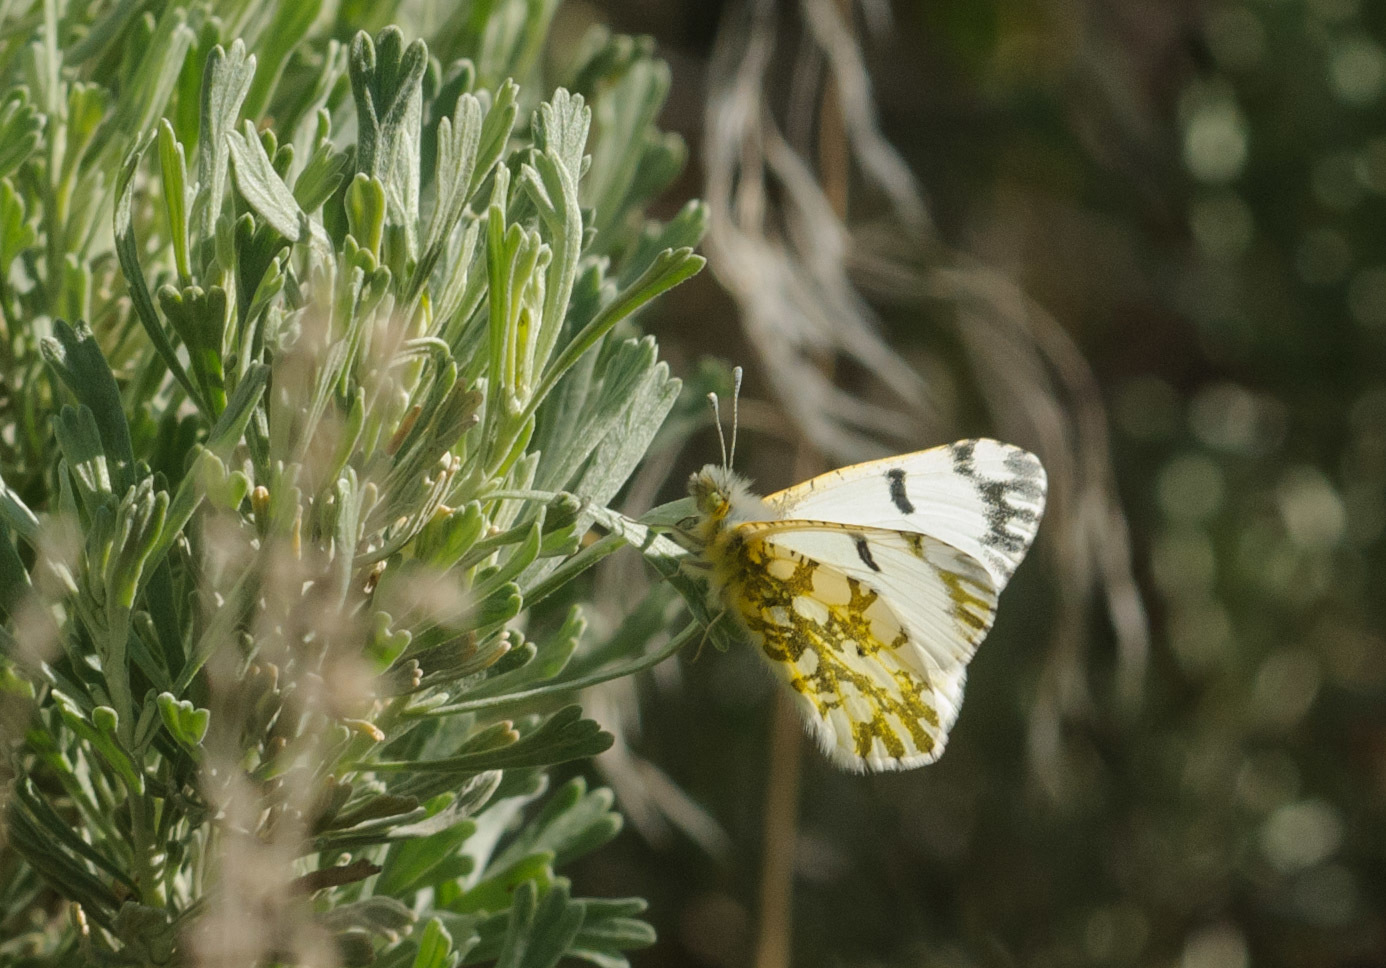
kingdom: Animalia
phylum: Arthropoda
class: Insecta
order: Lepidoptera
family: Pieridae
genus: Euchloe
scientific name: Euchloe ausonides
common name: Creamy marblewing
